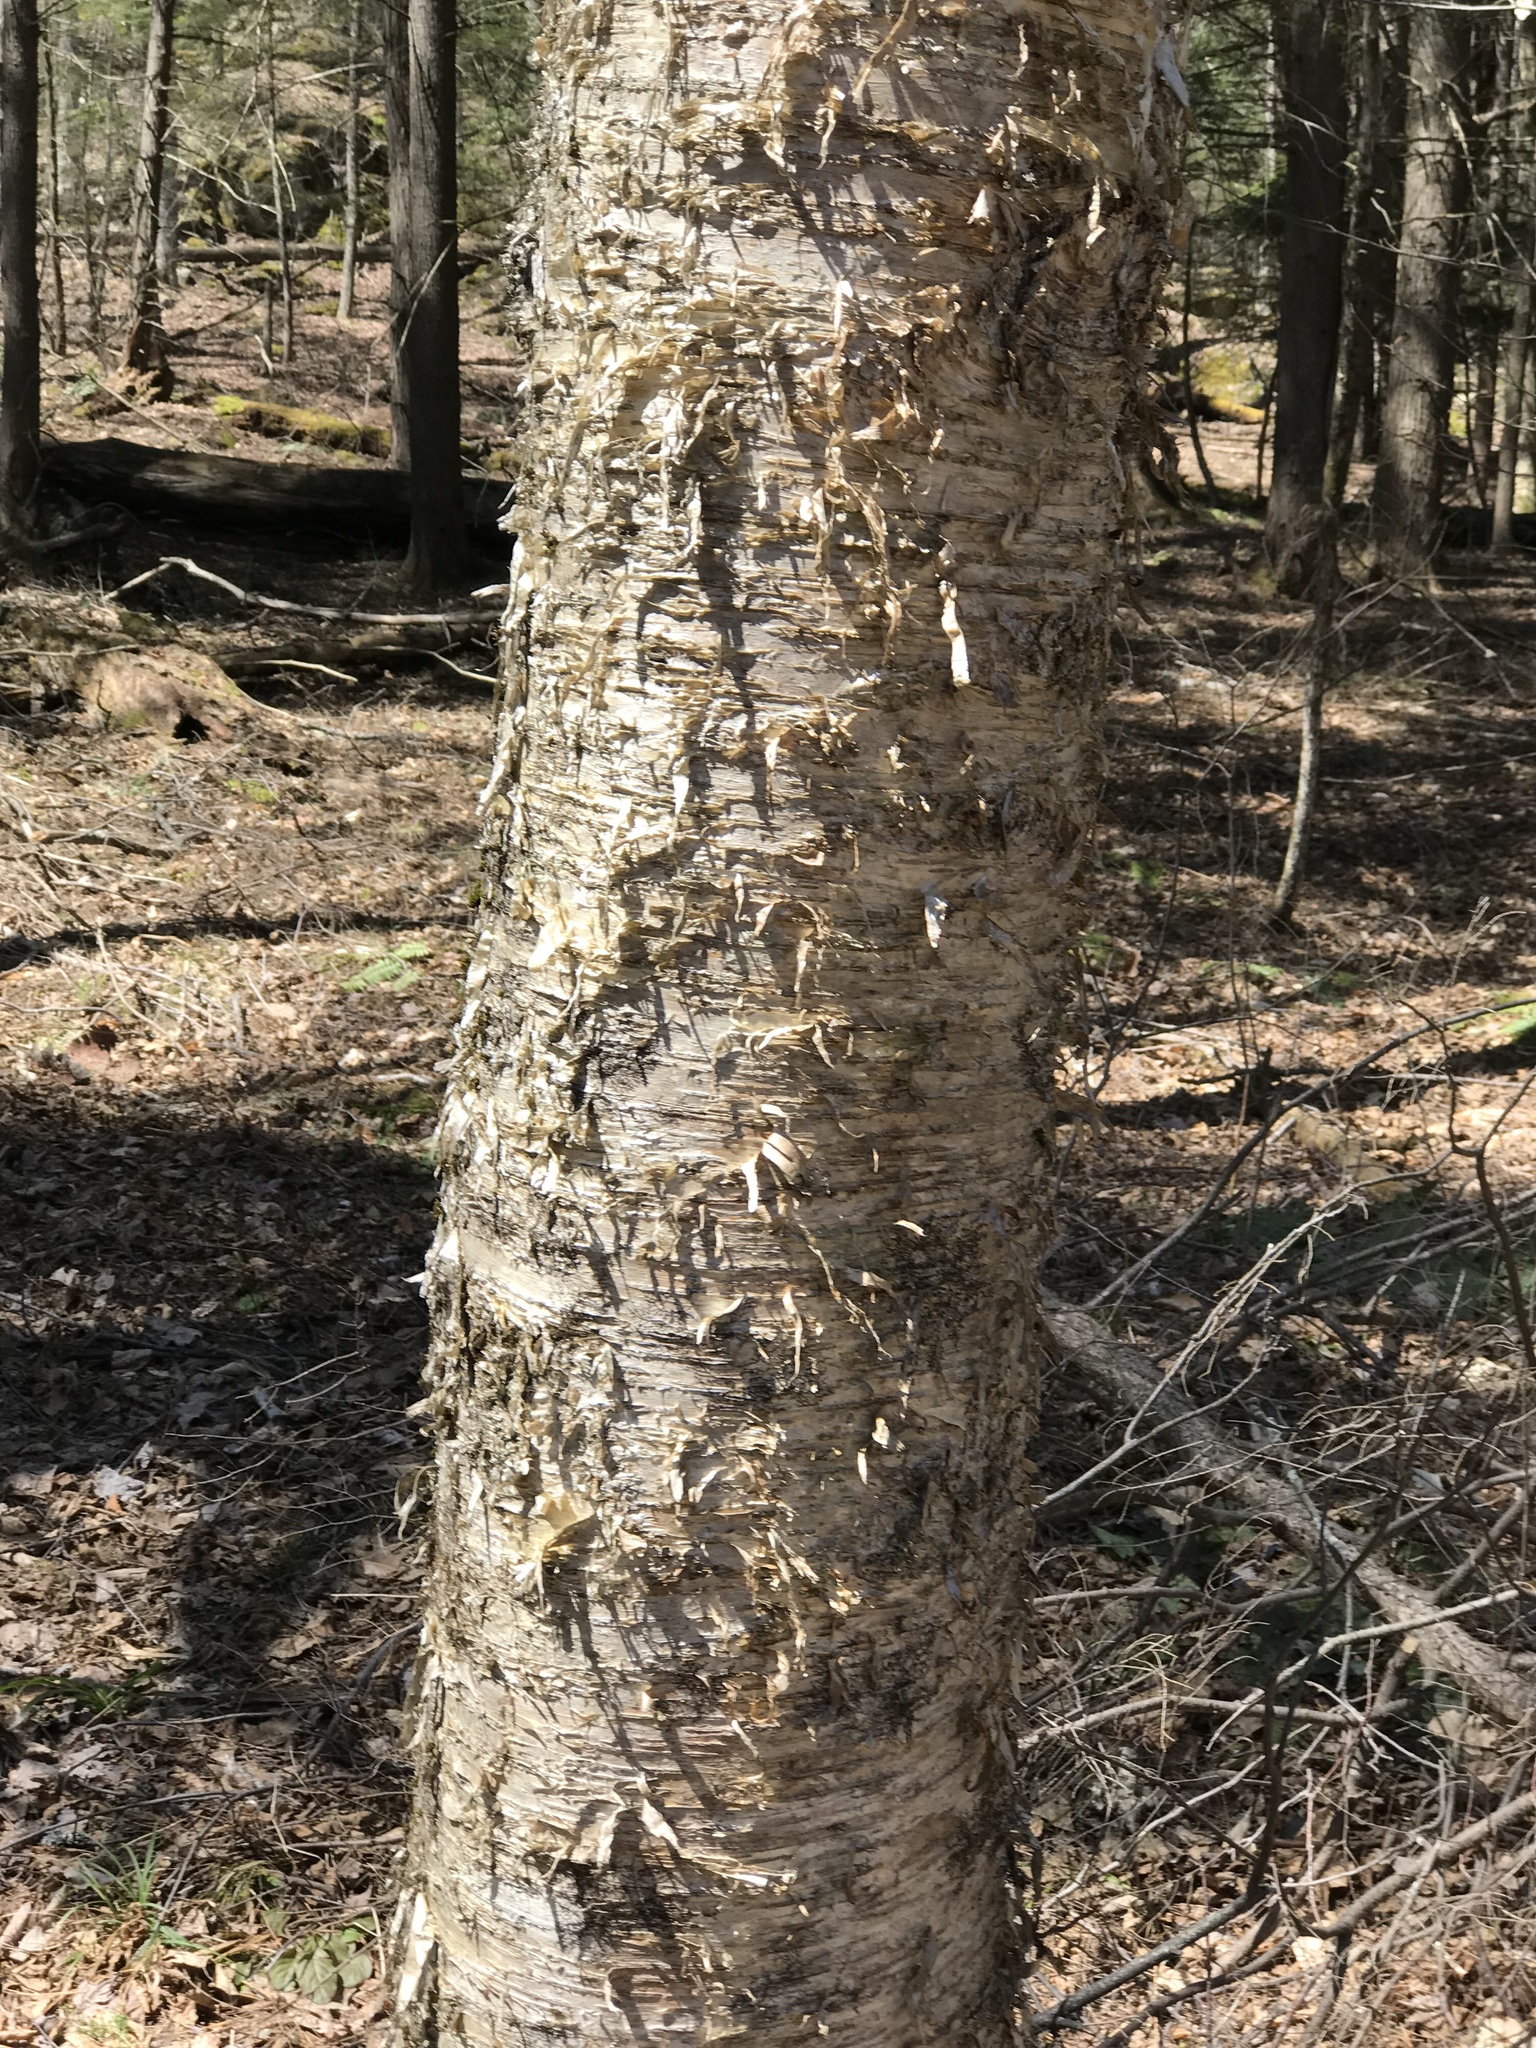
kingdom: Plantae
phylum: Tracheophyta
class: Magnoliopsida
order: Fagales
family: Betulaceae
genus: Betula
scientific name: Betula alleghaniensis
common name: Yellow birch
